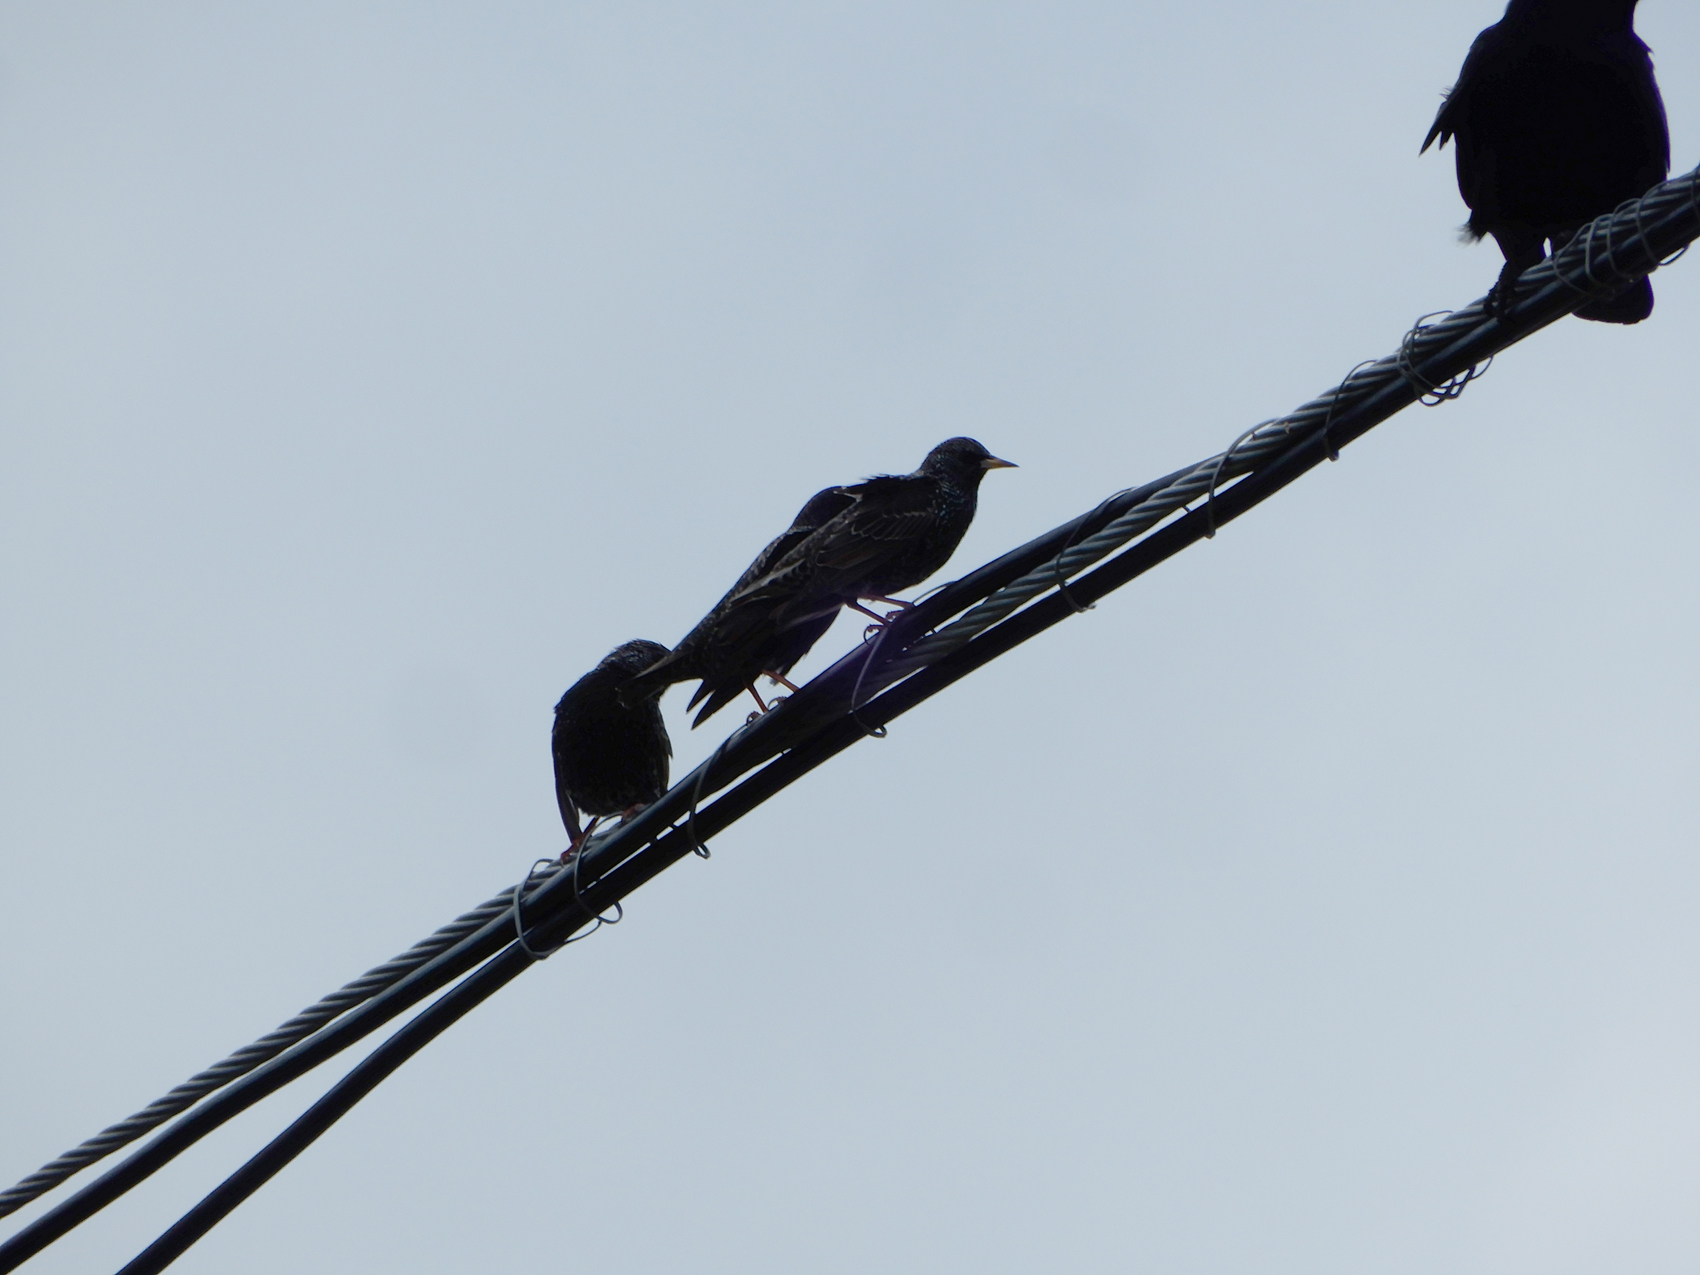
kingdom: Animalia
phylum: Chordata
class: Aves
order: Passeriformes
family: Sturnidae
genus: Sturnus
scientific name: Sturnus vulgaris
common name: Common starling
